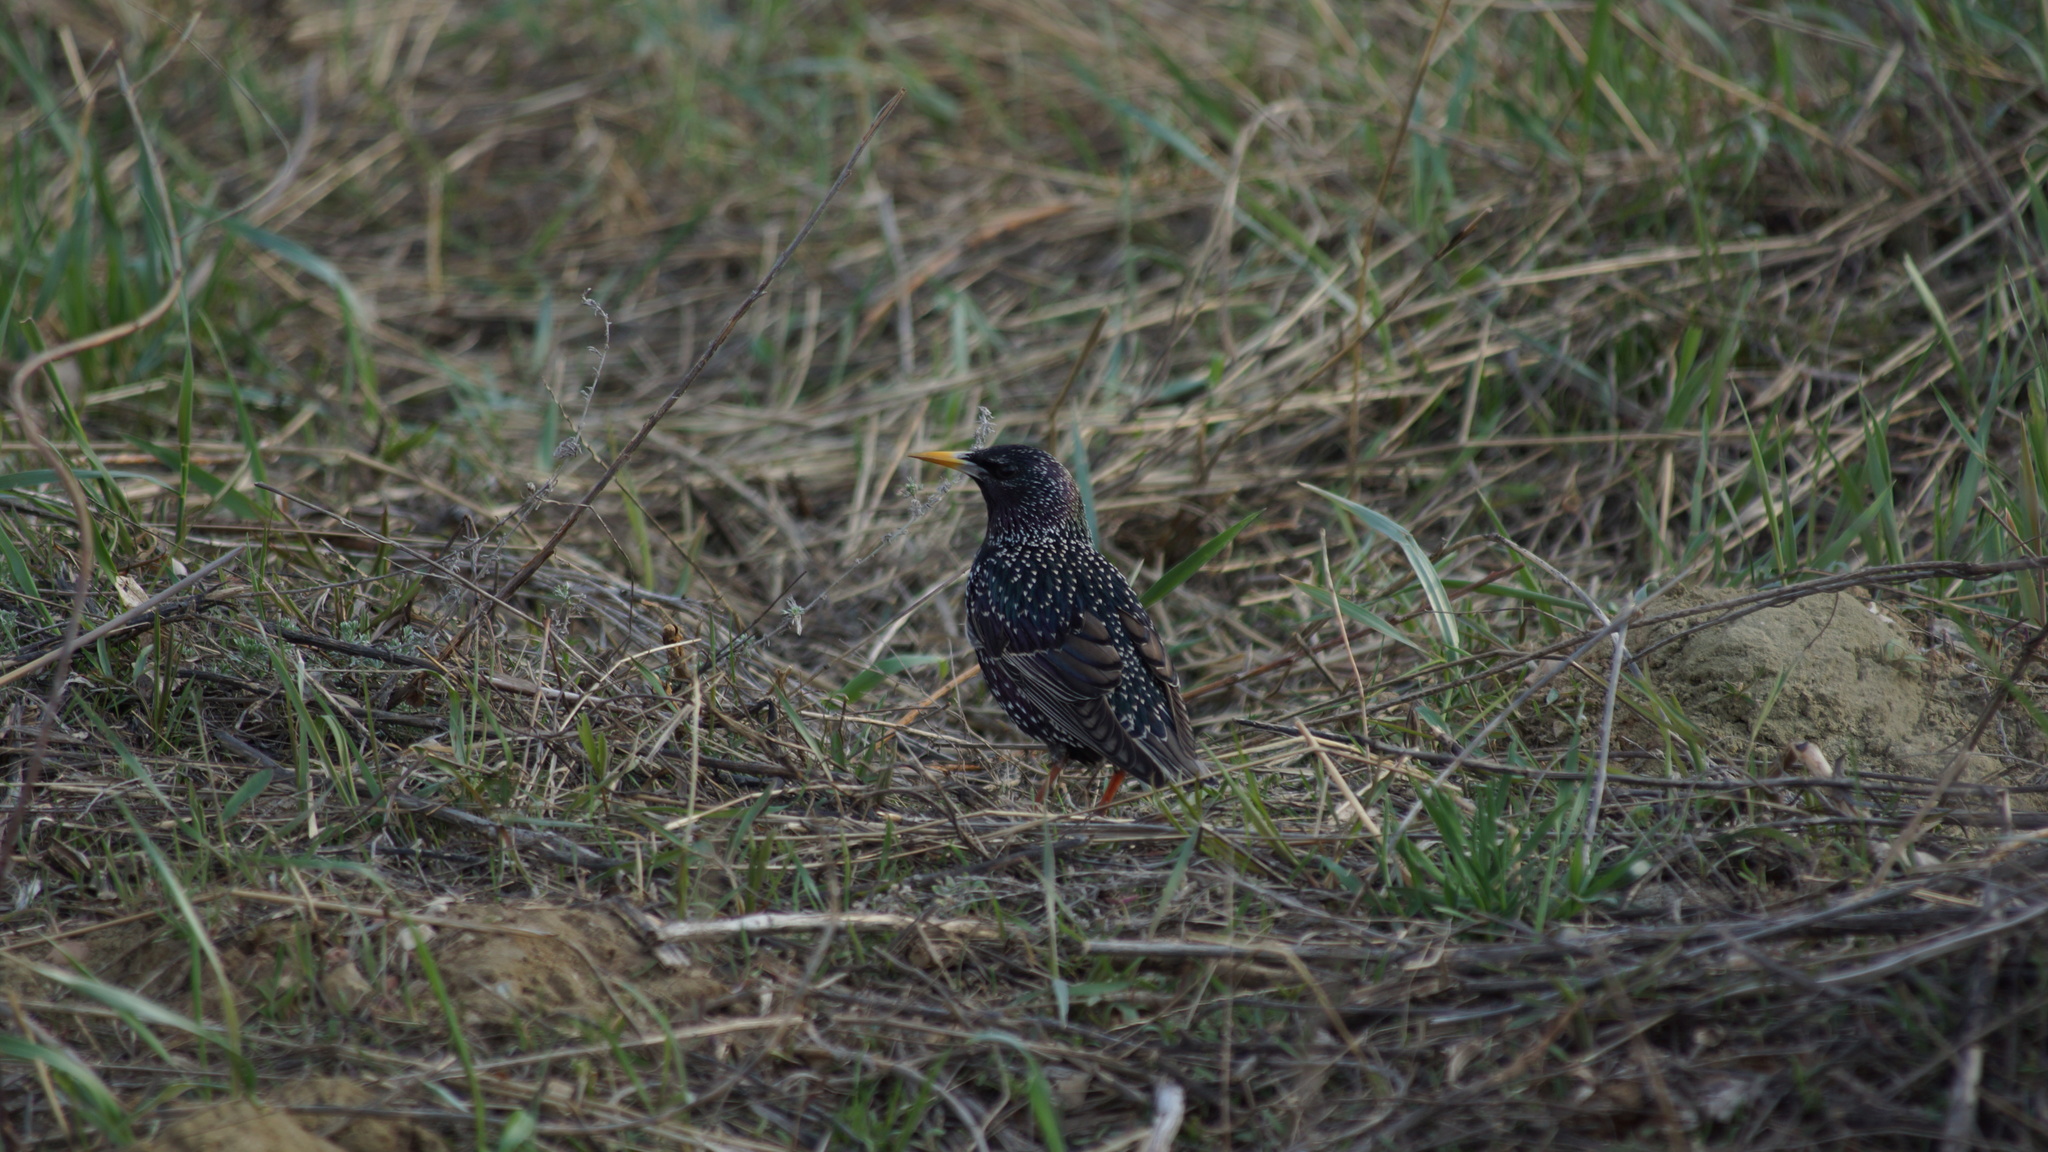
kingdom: Animalia
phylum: Chordata
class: Aves
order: Passeriformes
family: Sturnidae
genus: Sturnus
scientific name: Sturnus vulgaris
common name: Common starling
